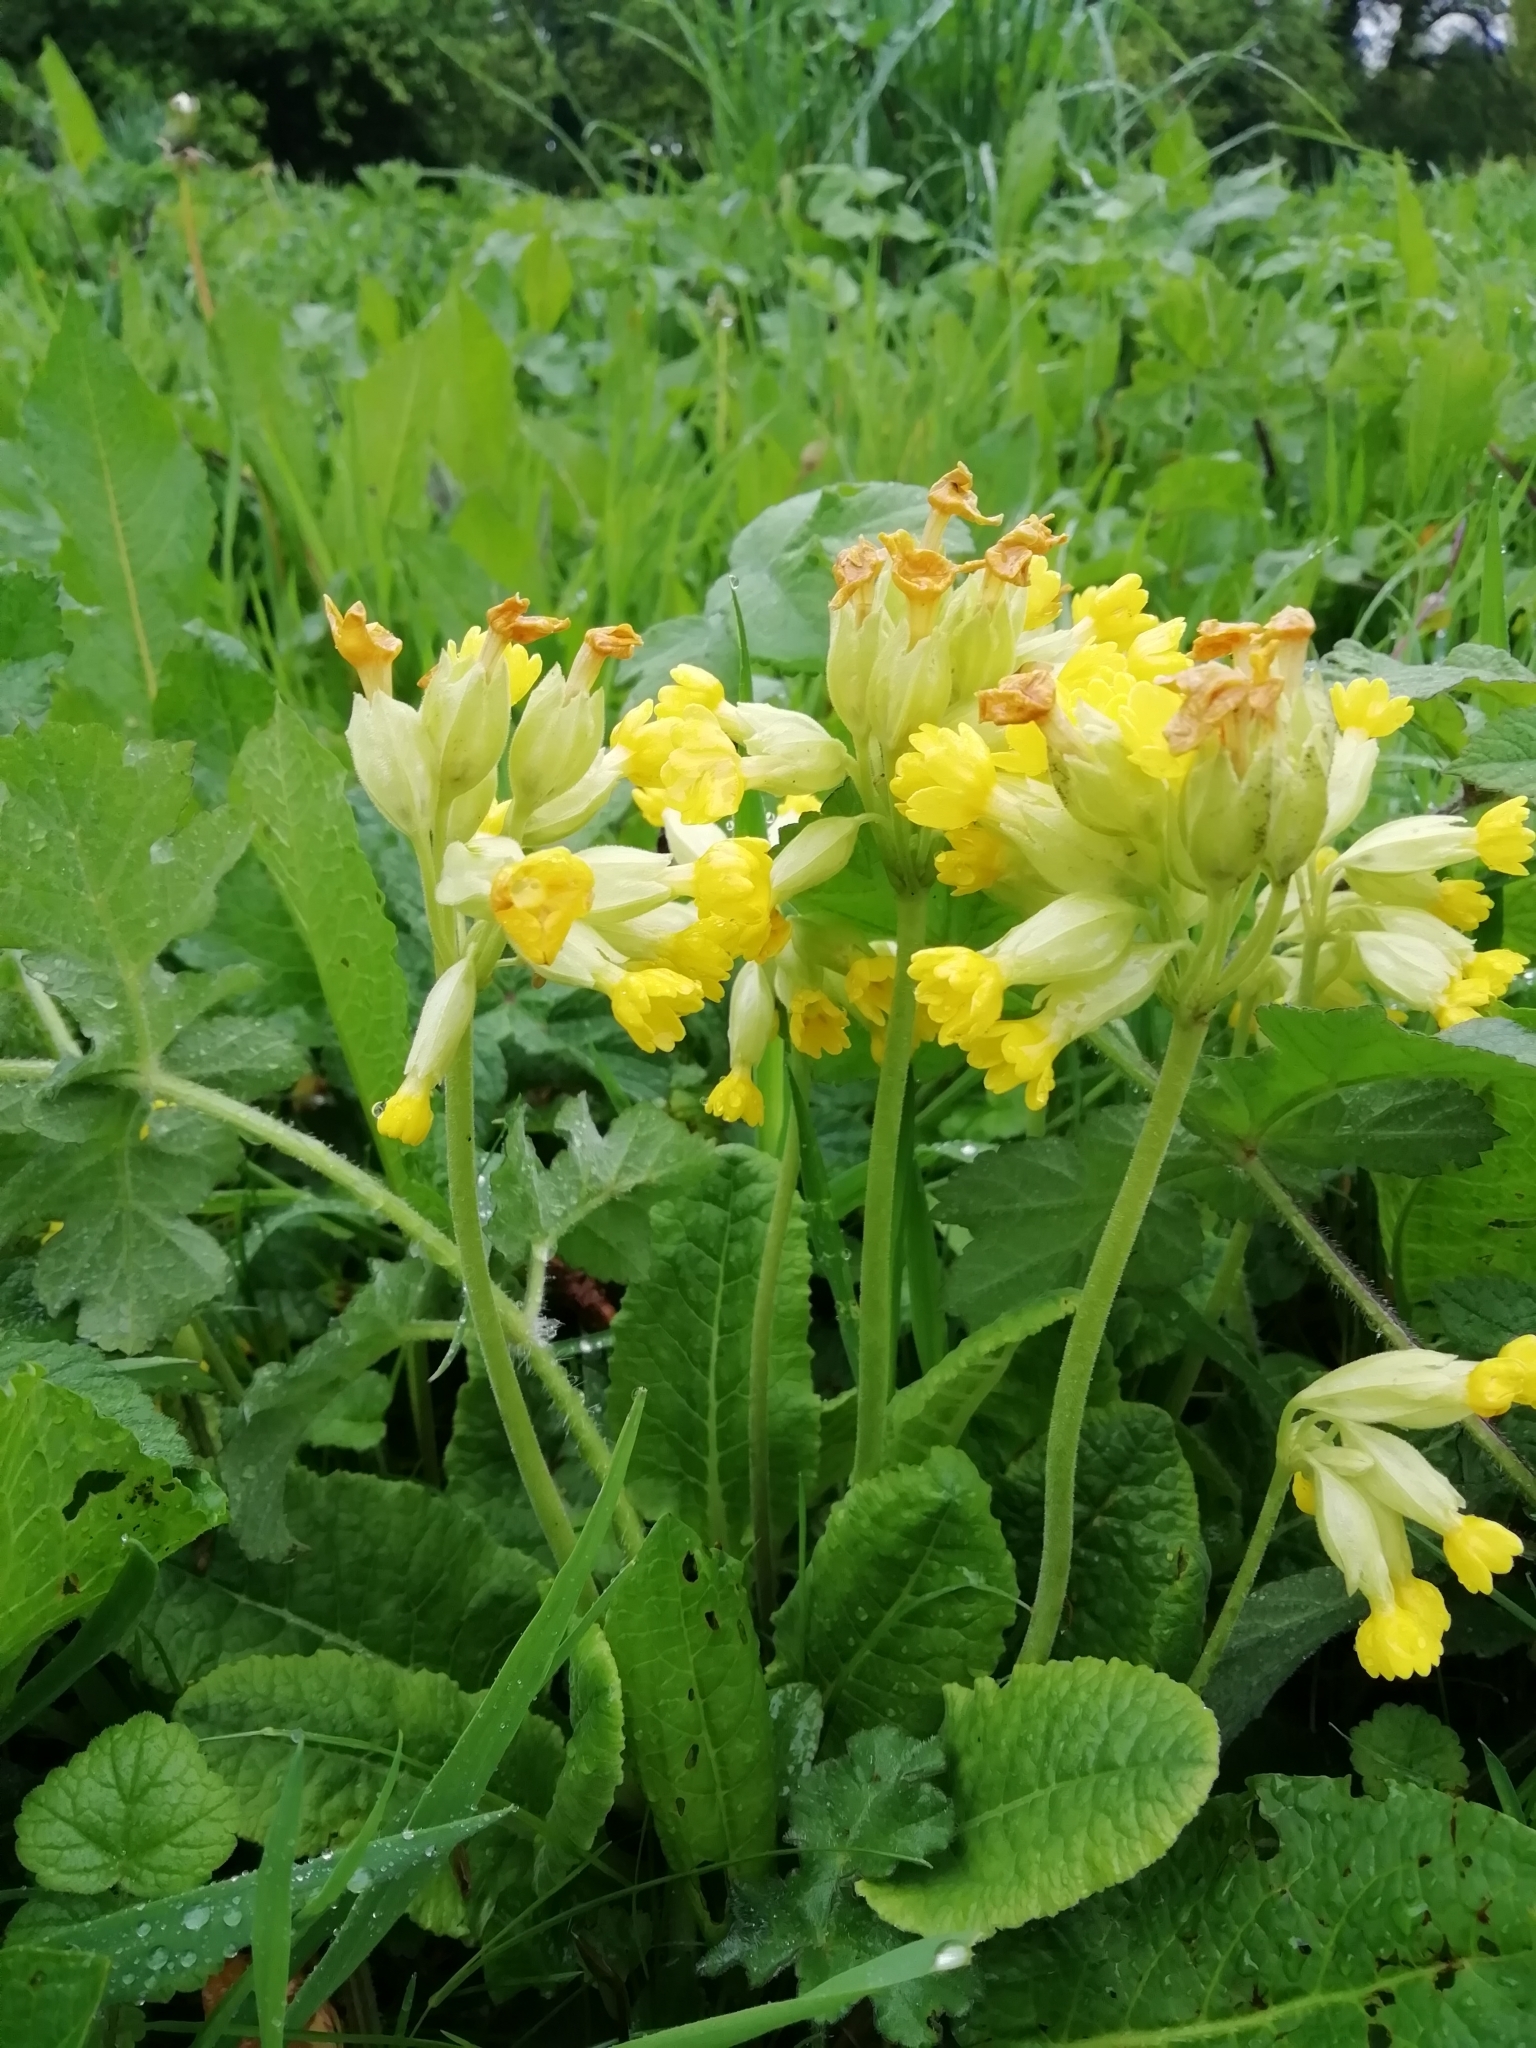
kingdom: Plantae
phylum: Tracheophyta
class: Magnoliopsida
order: Ericales
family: Primulaceae
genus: Primula
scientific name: Primula veris
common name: Cowslip
